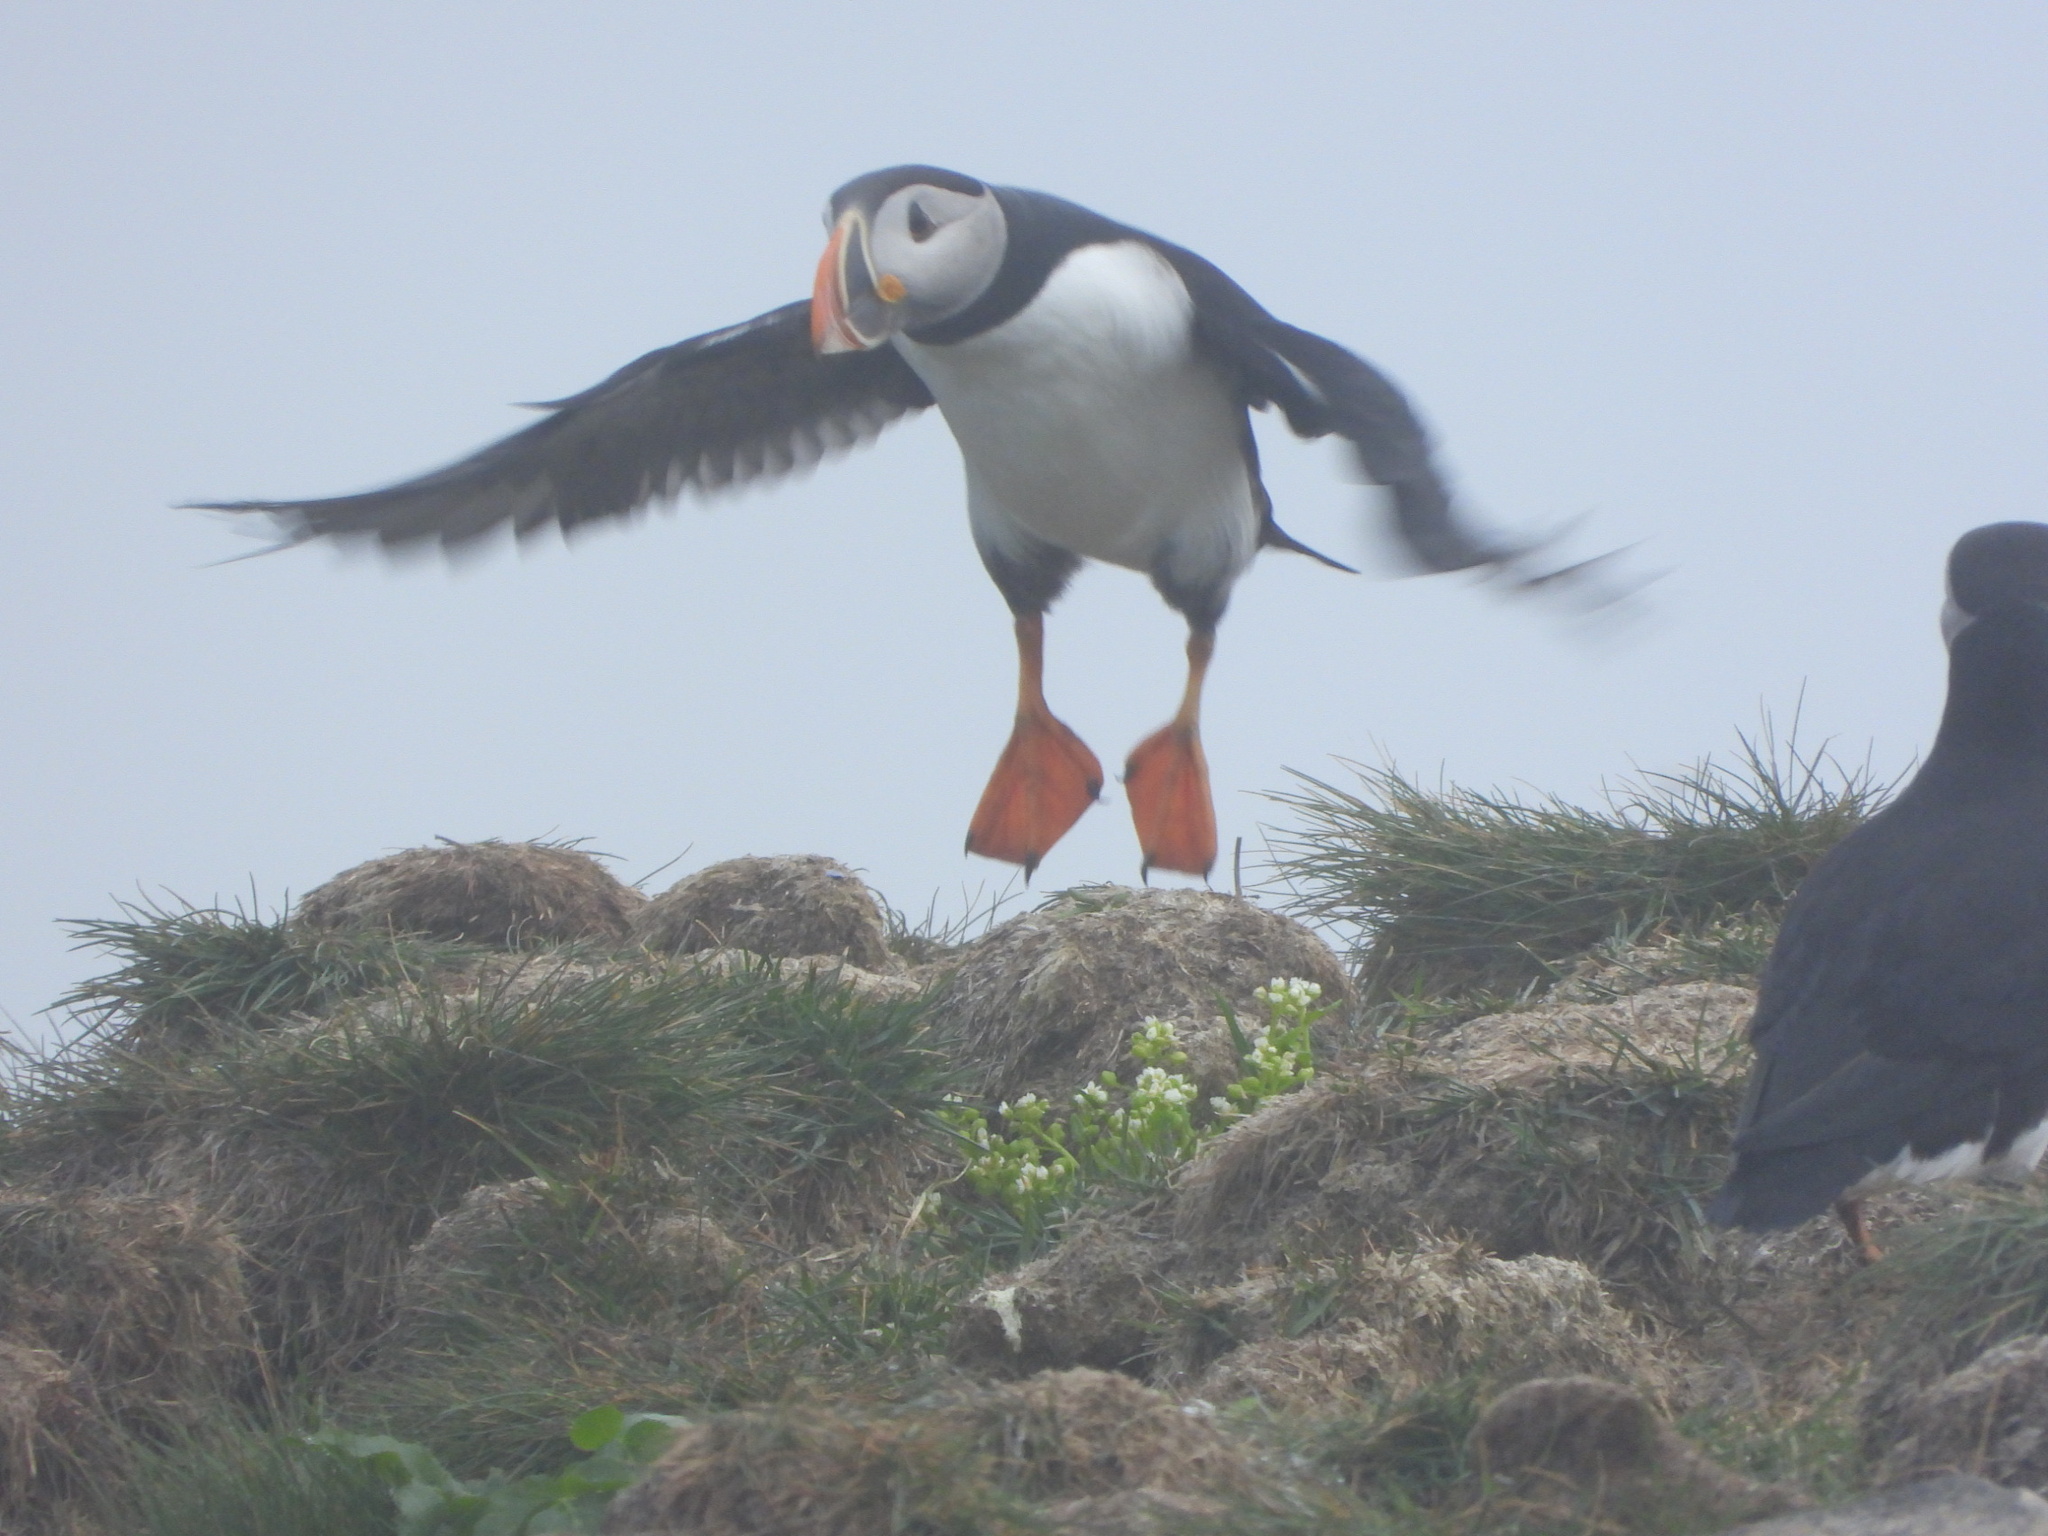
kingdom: Animalia
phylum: Chordata
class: Aves
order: Charadriiformes
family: Alcidae
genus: Fratercula
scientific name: Fratercula arctica
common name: Atlantic puffin
